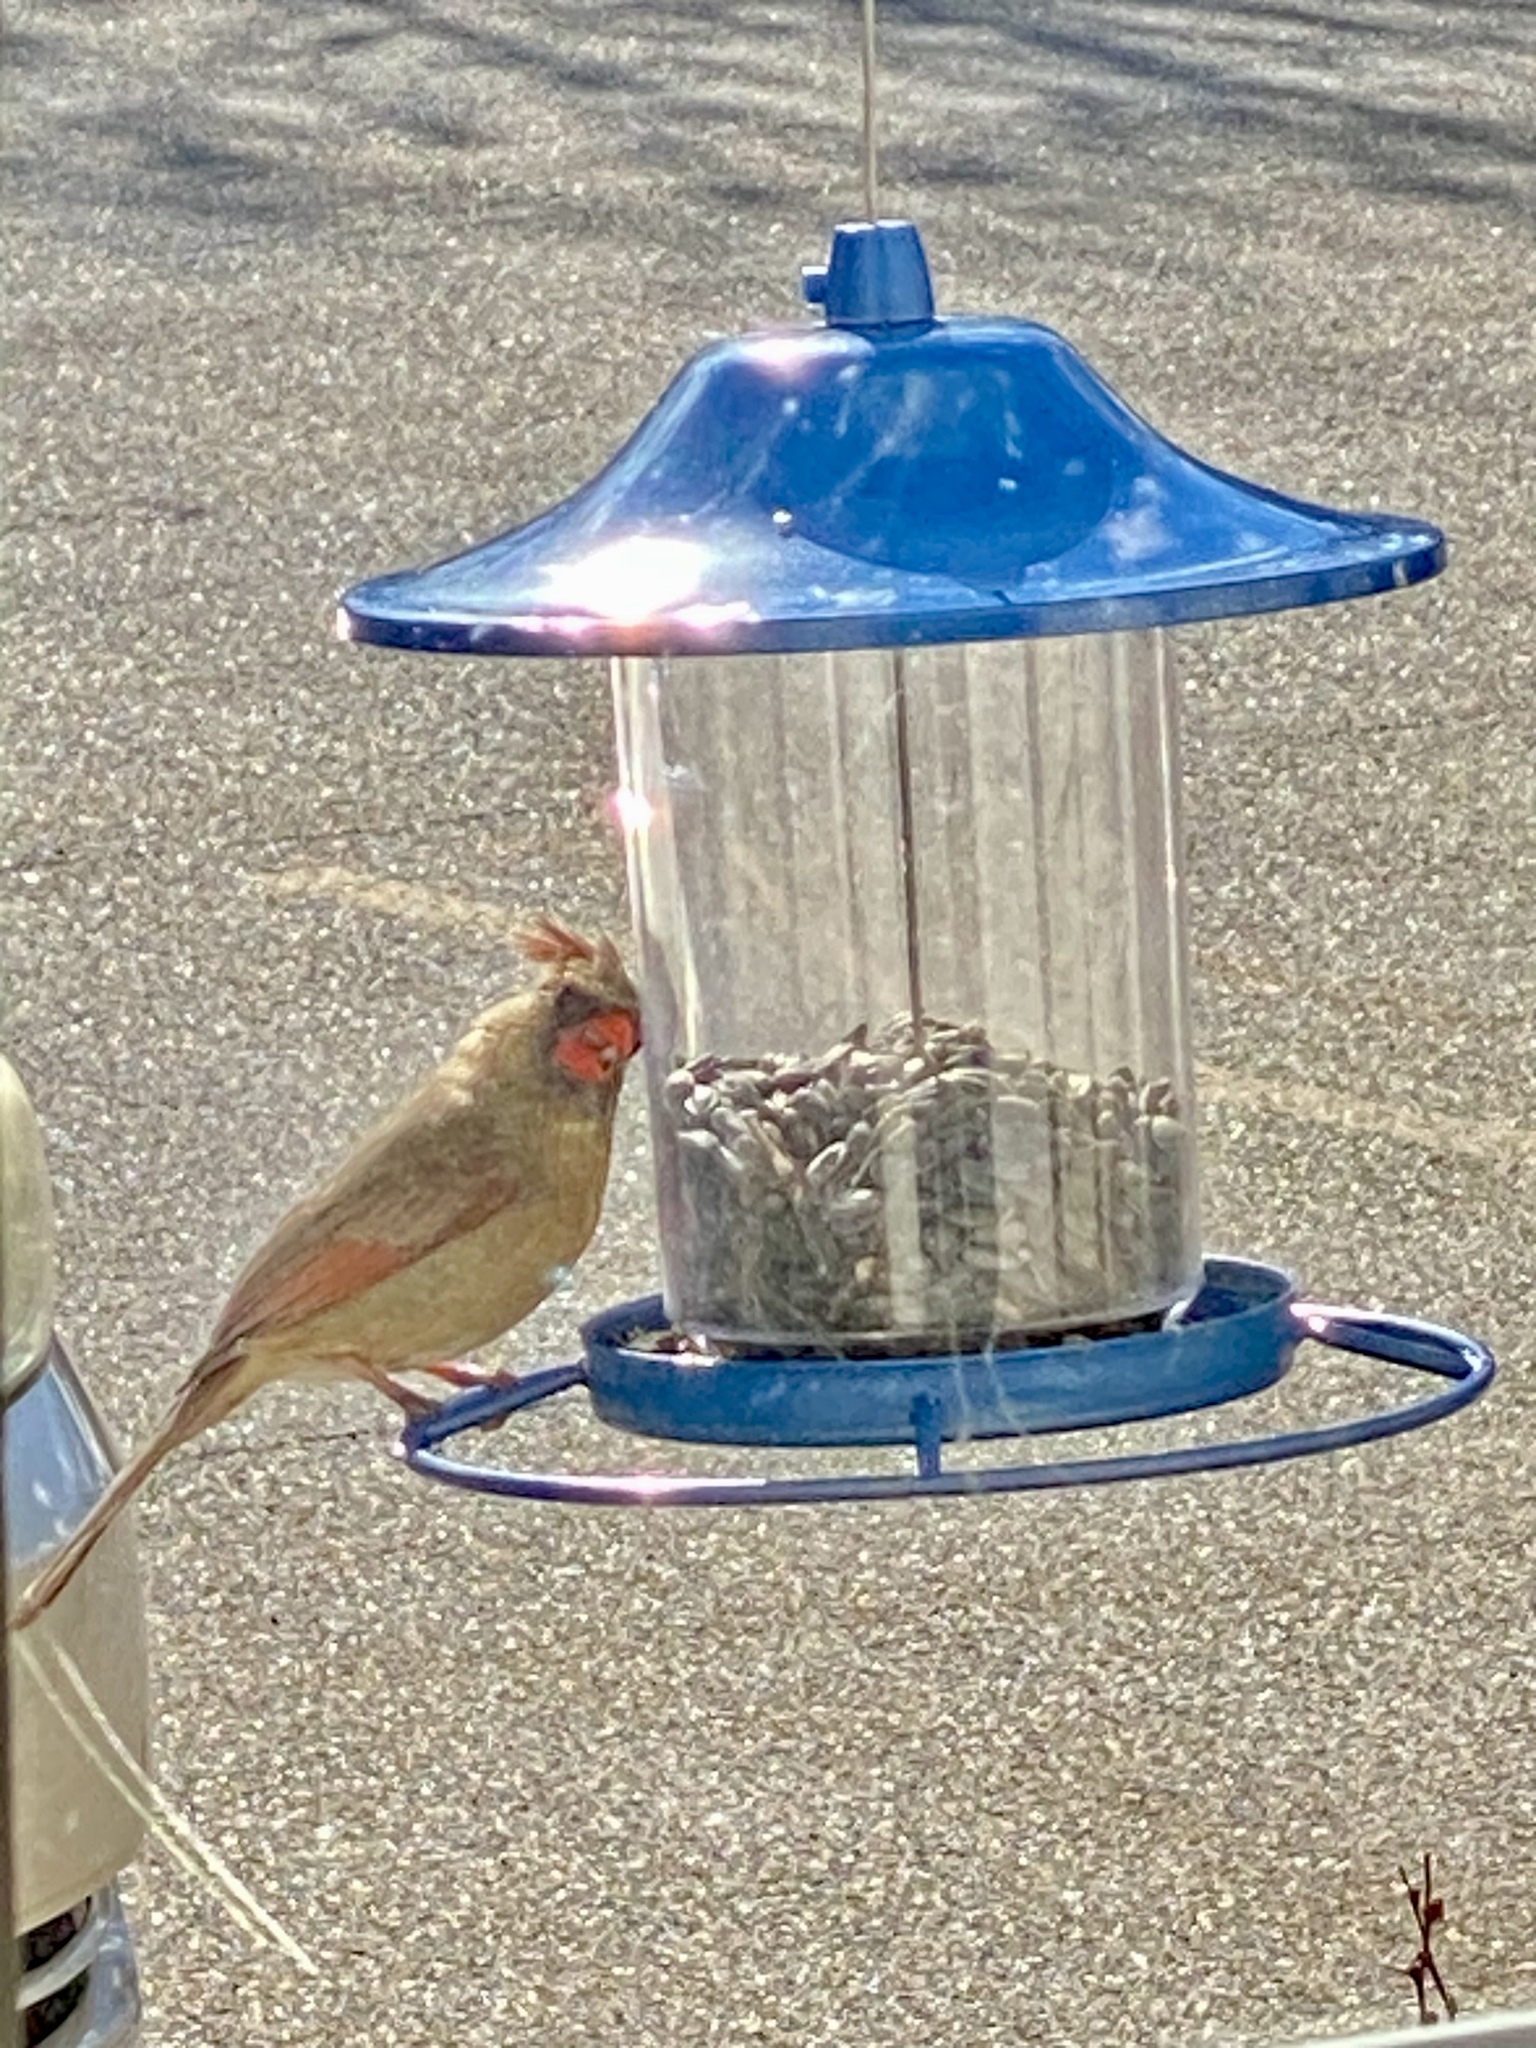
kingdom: Animalia
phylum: Chordata
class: Aves
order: Passeriformes
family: Cardinalidae
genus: Cardinalis
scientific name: Cardinalis cardinalis
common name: Northern cardinal
